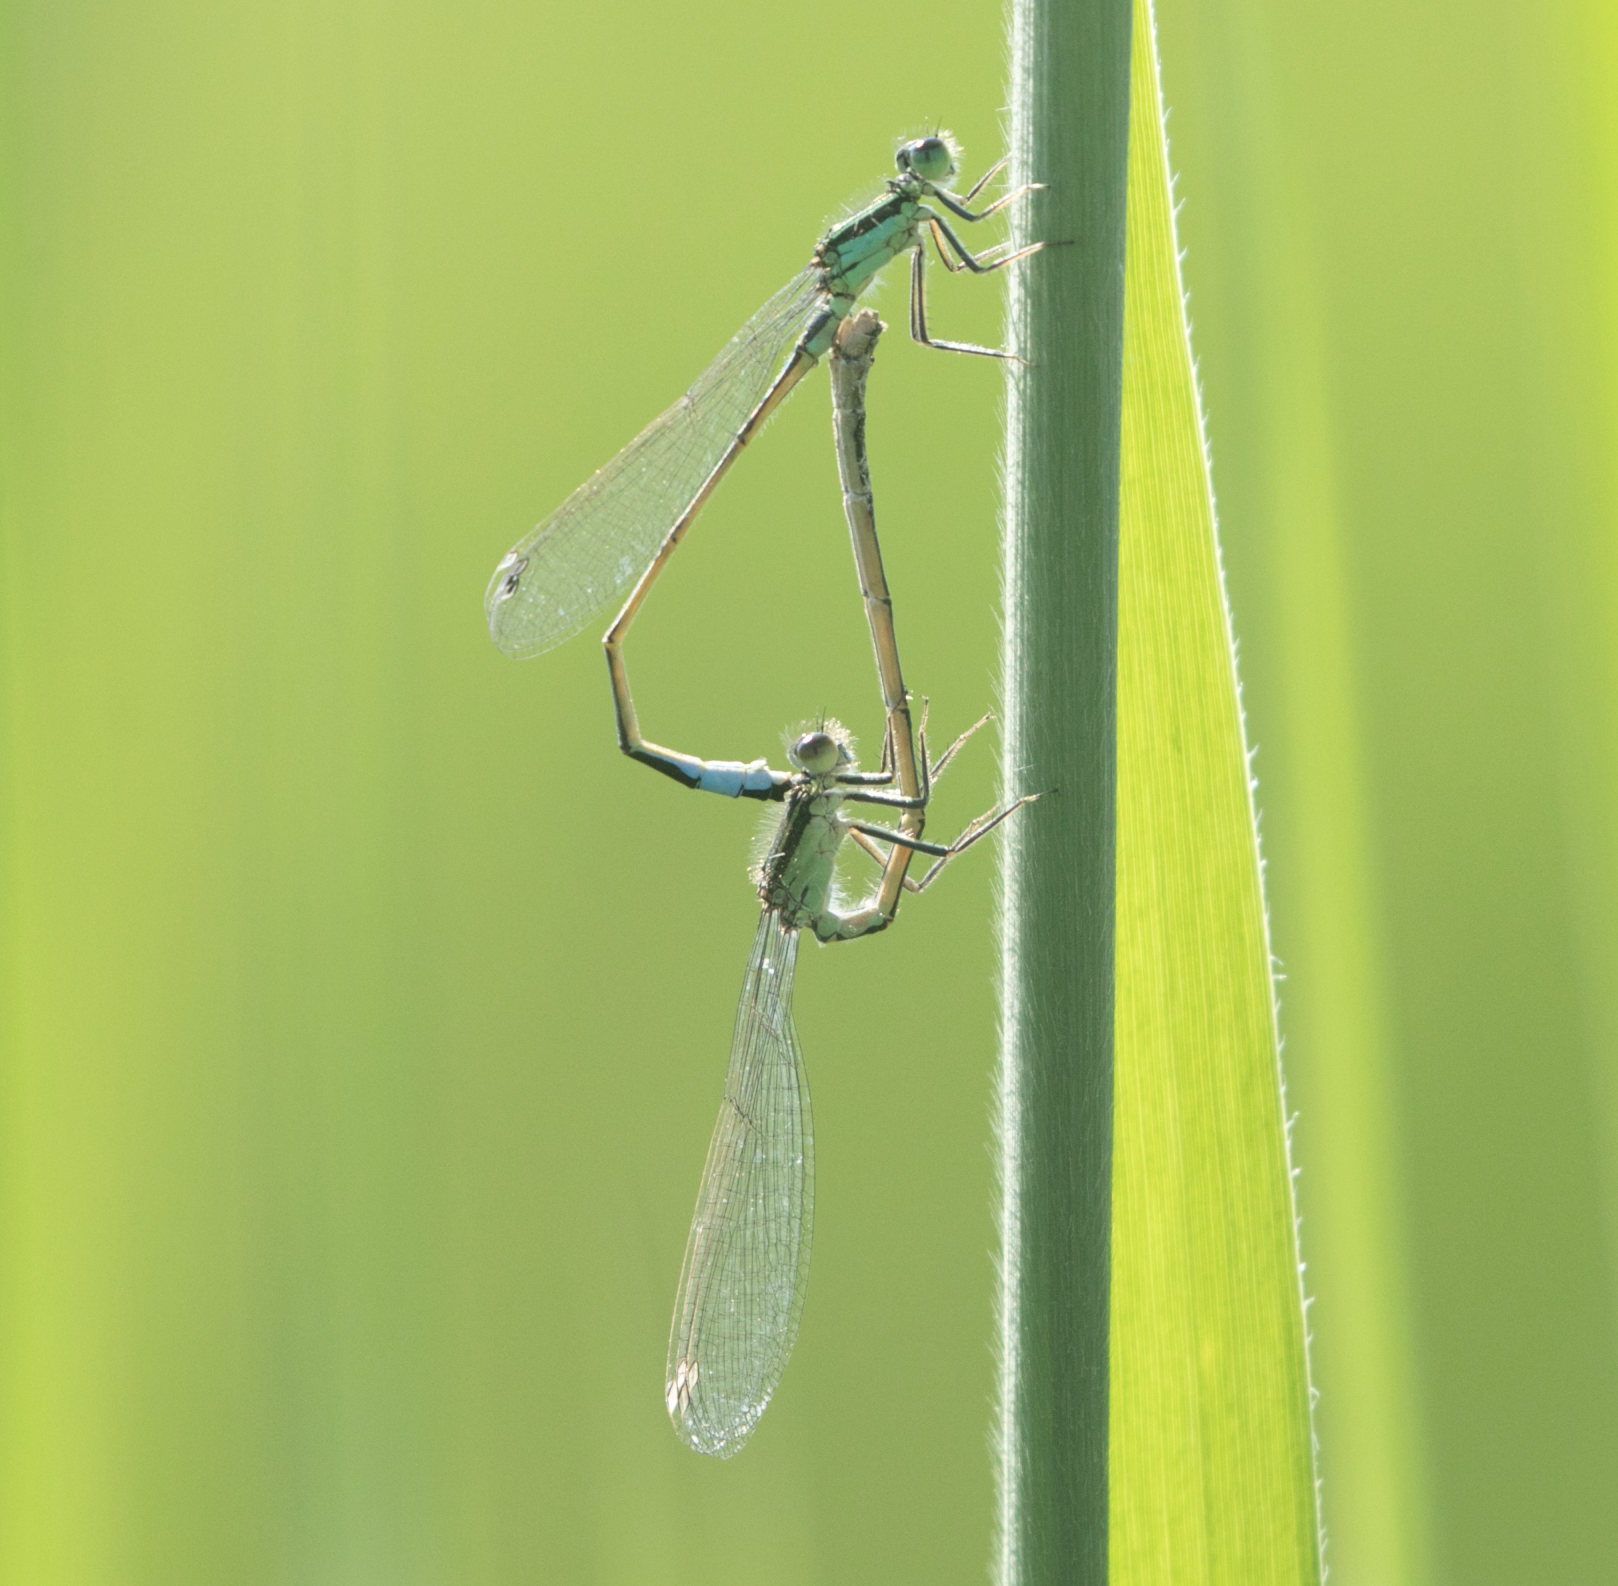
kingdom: Animalia
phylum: Arthropoda
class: Insecta
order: Odonata
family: Coenagrionidae
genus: Ischnura
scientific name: Ischnura elegans
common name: Blue-tailed damselfly
